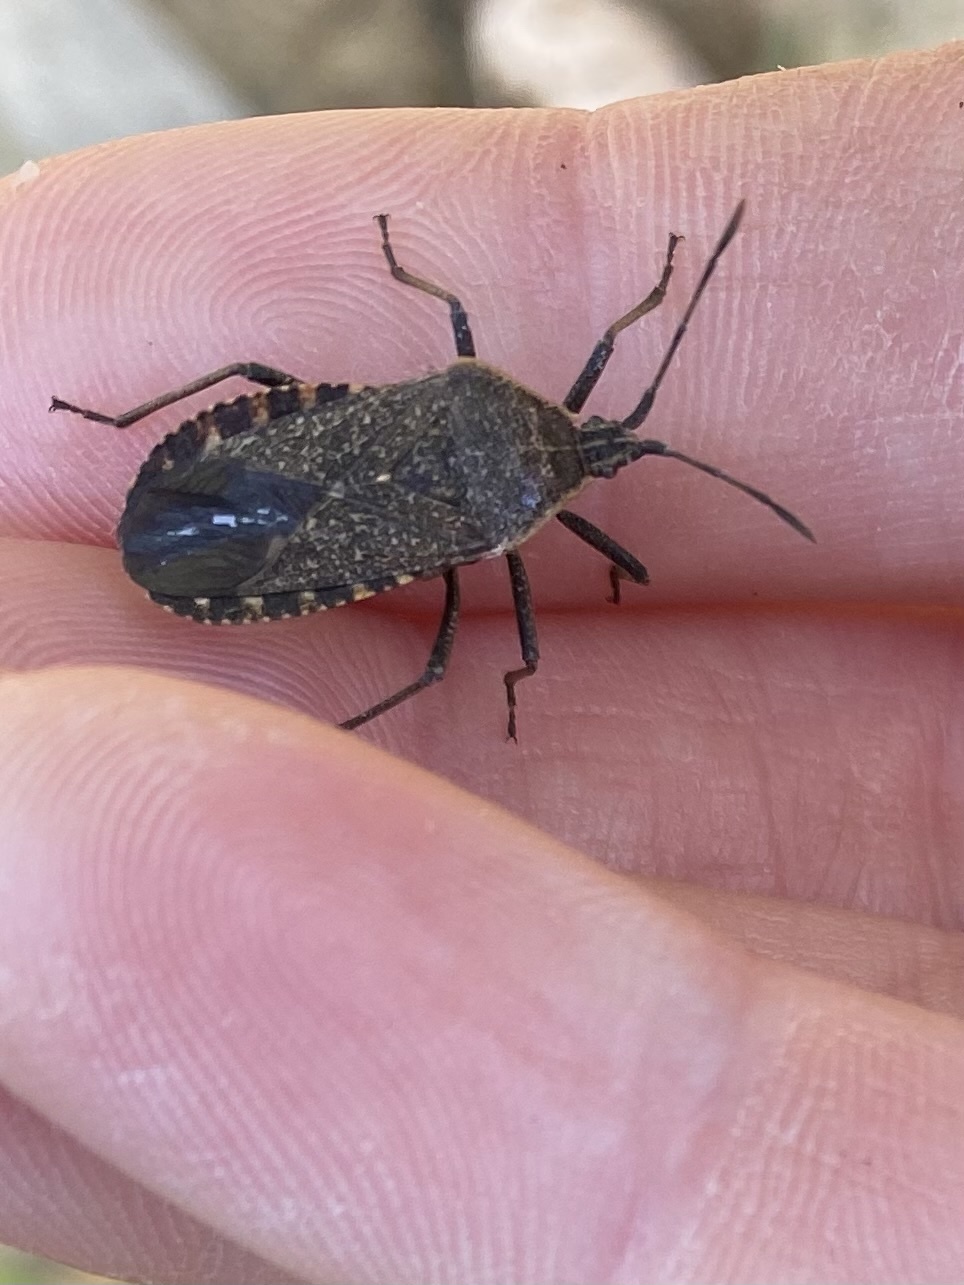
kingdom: Animalia
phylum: Arthropoda
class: Insecta
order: Hemiptera
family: Coreidae
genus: Anasa
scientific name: Anasa tristis
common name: Squash bug
